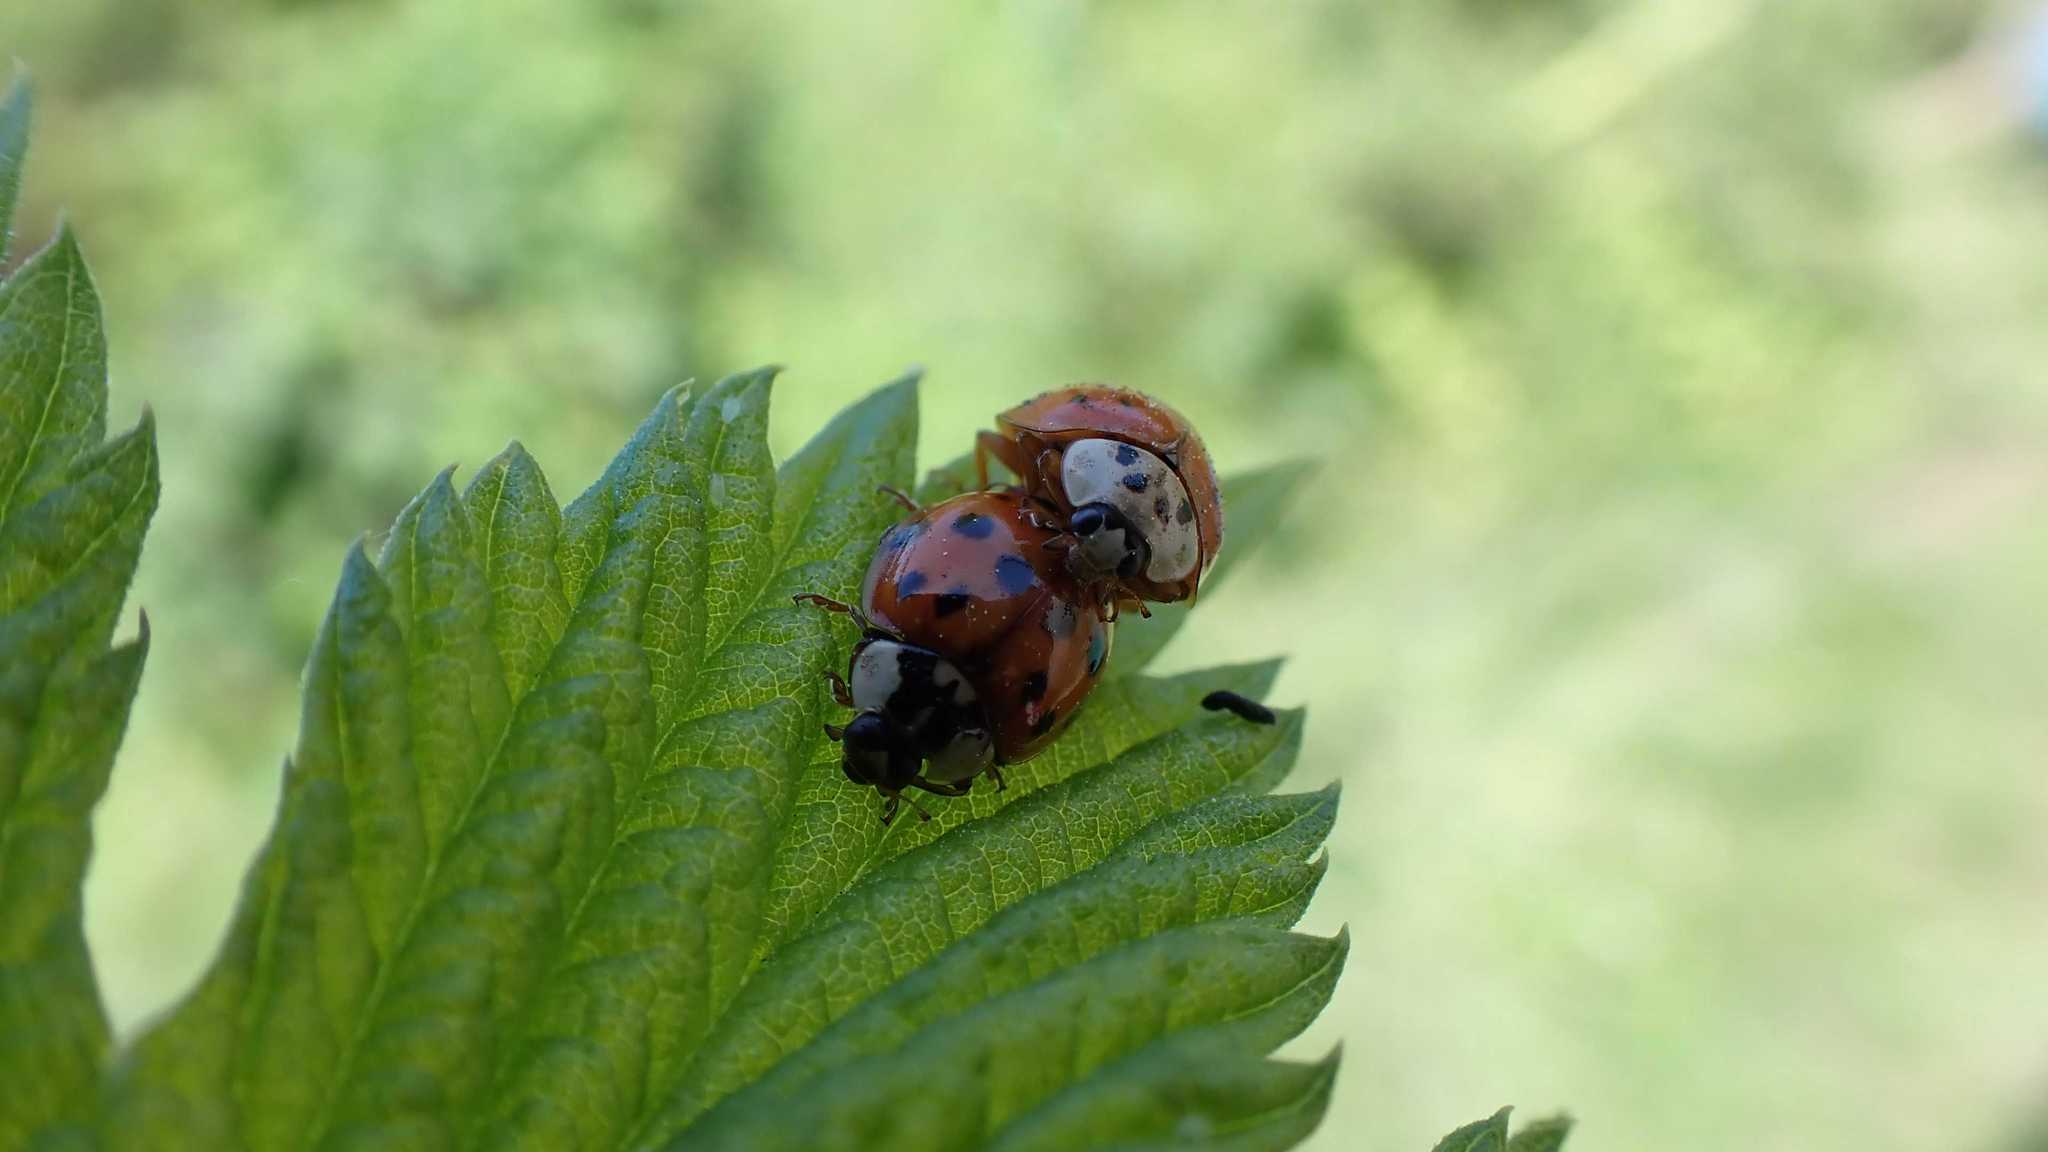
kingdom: Animalia
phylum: Arthropoda
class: Insecta
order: Coleoptera
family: Coccinellidae
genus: Harmonia
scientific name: Harmonia axyridis
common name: Harlequin ladybird
